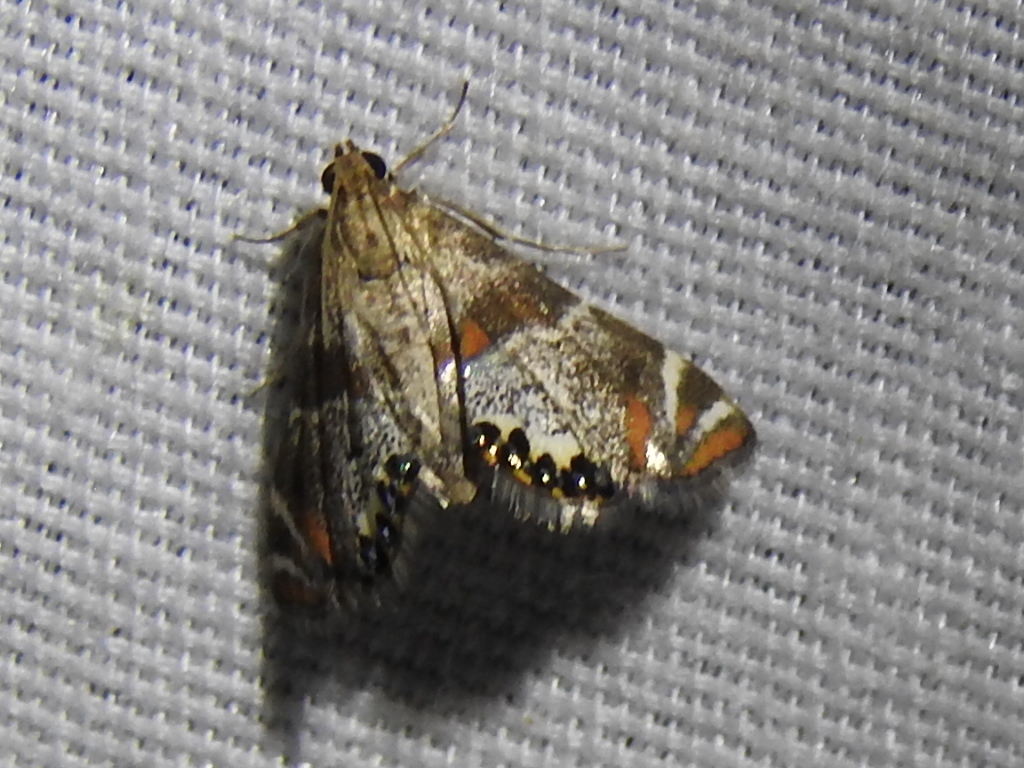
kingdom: Animalia
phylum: Arthropoda
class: Insecta
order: Lepidoptera
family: Crambidae
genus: Petrophila
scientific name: Petrophila jaliscalis
